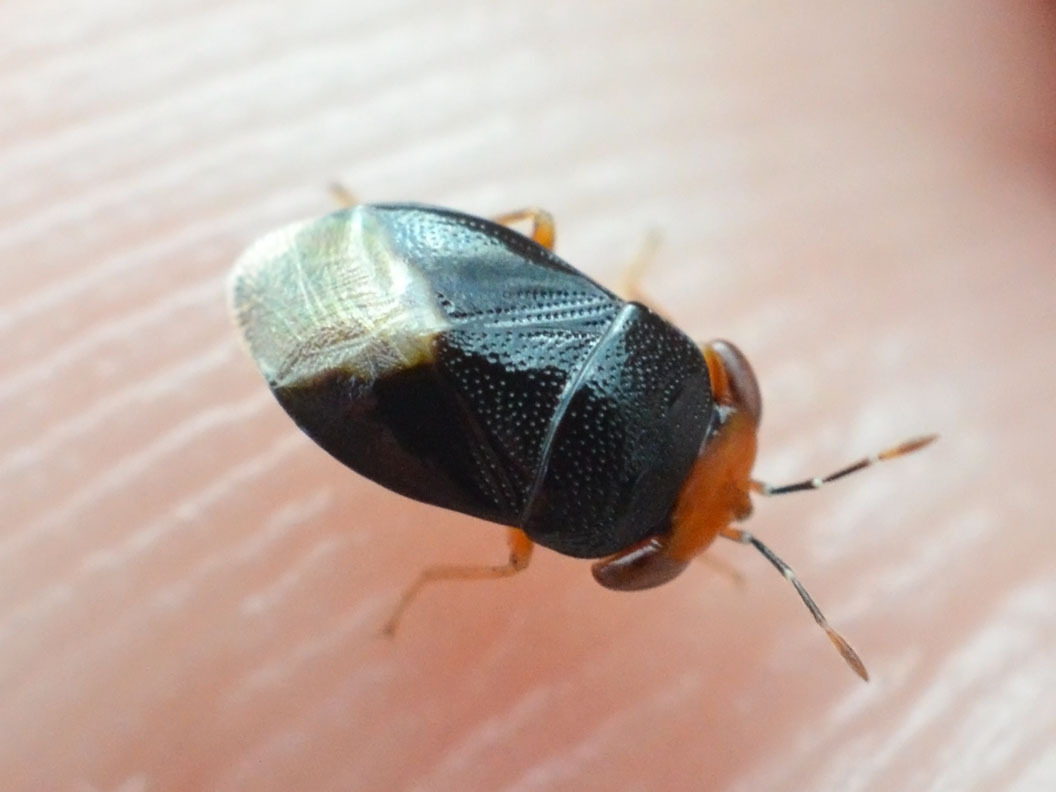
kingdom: Animalia
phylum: Arthropoda
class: Insecta
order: Hemiptera
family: Geocoridae
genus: Geocoris
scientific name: Geocoris erythrocephala
